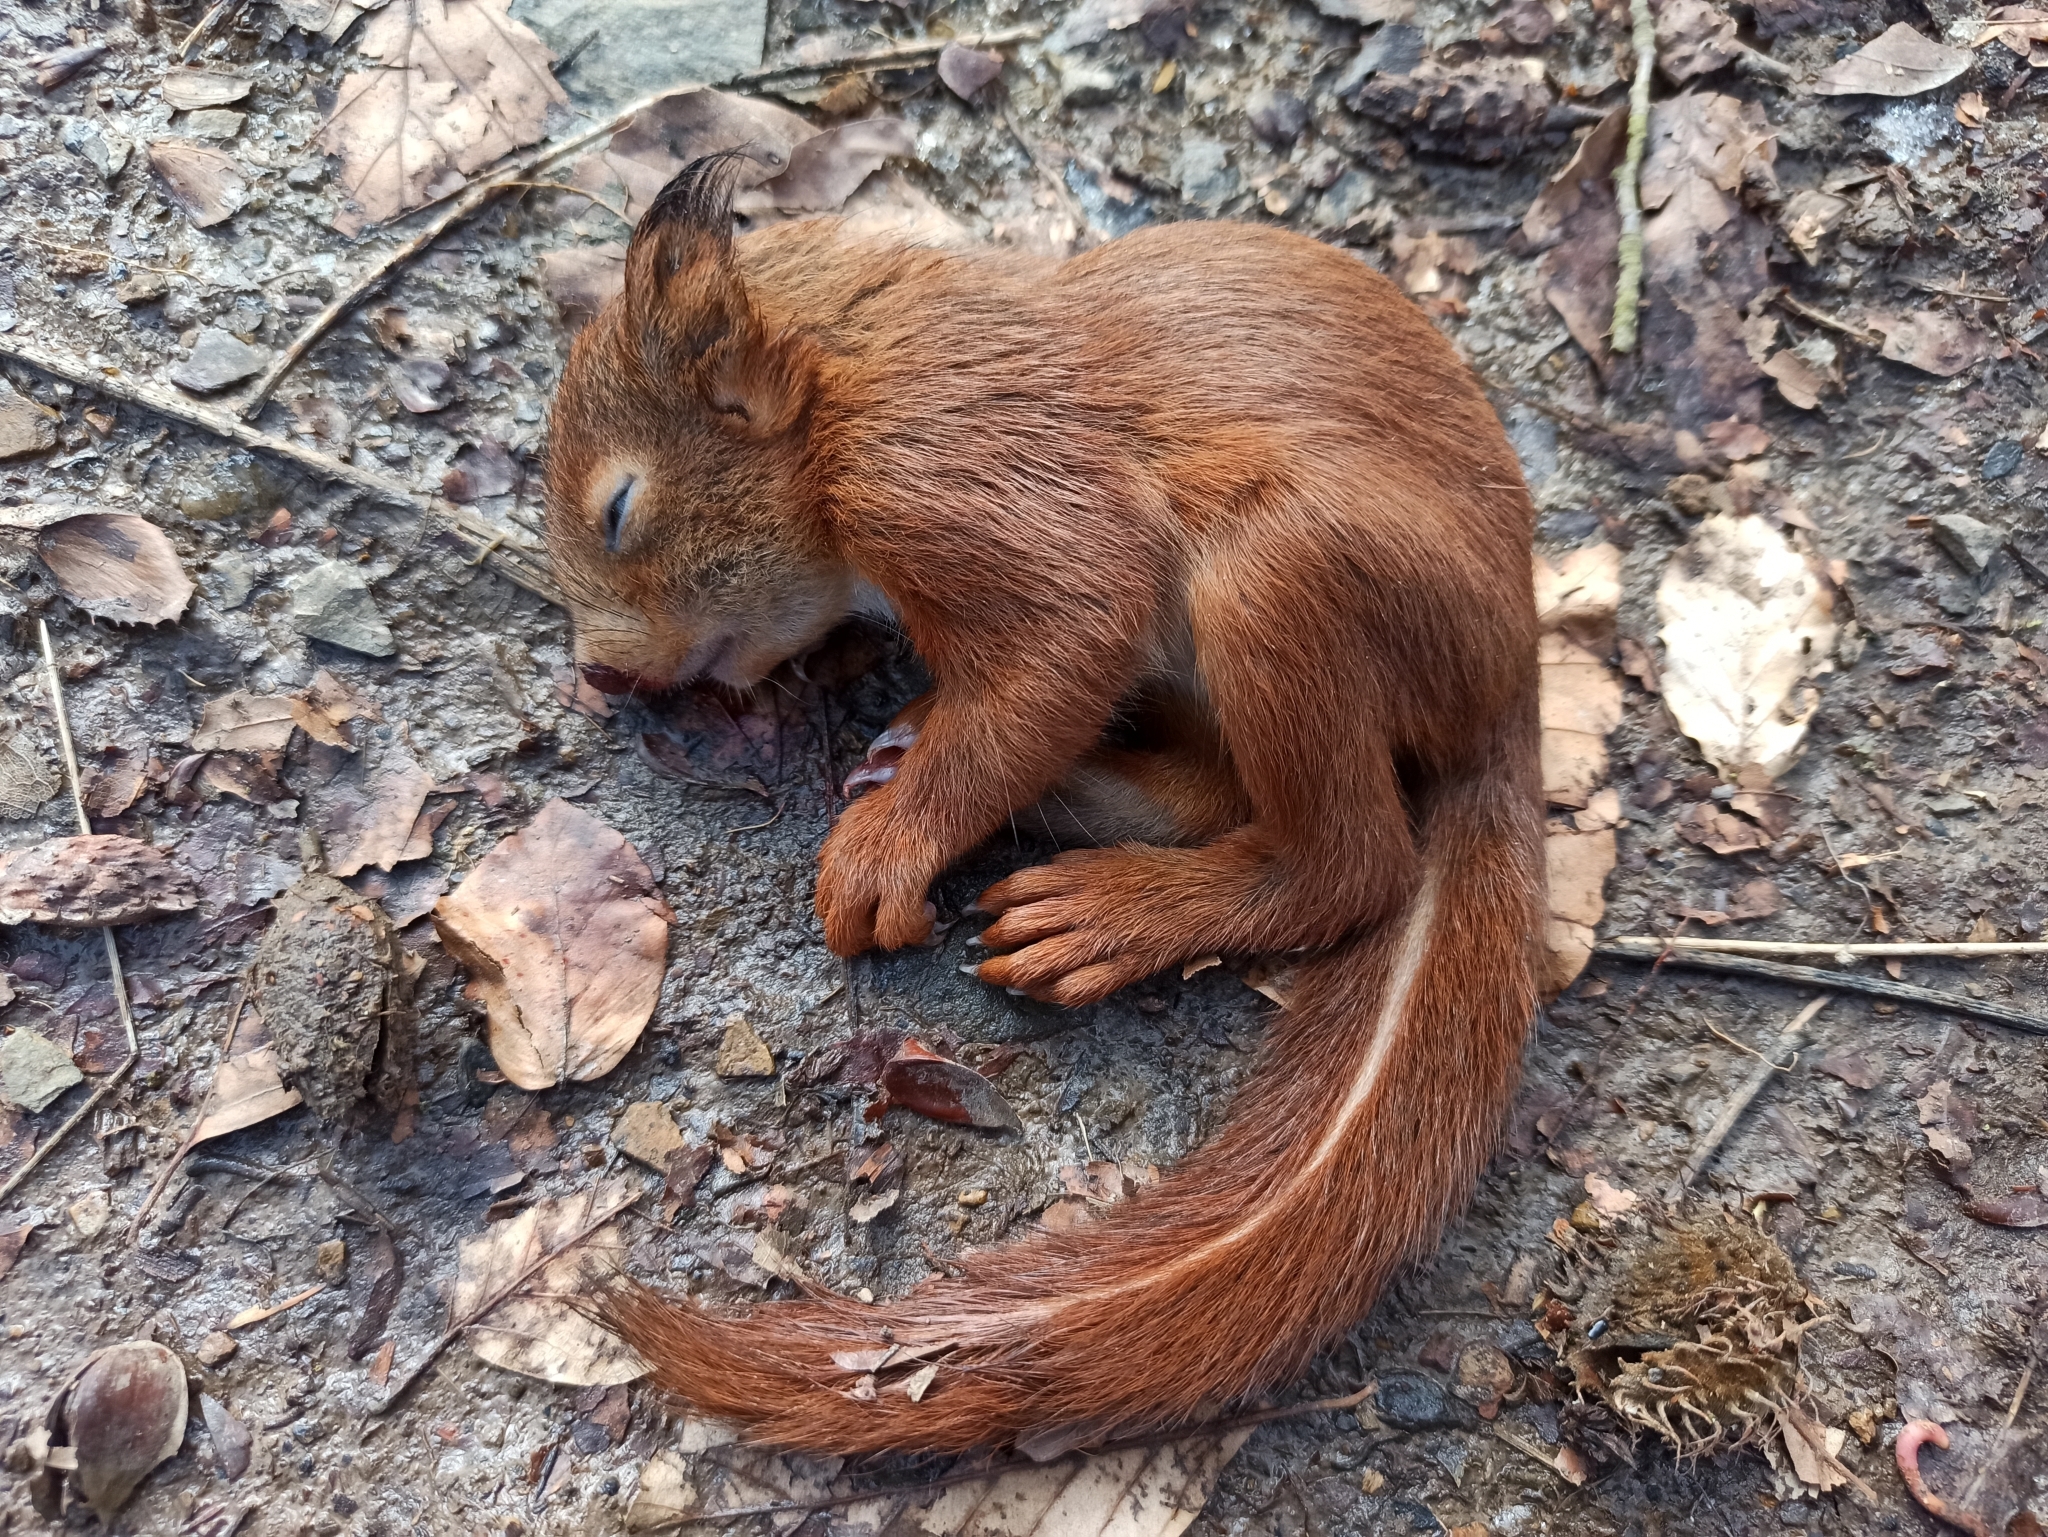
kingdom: Animalia
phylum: Chordata
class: Mammalia
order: Rodentia
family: Sciuridae
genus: Sciurus
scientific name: Sciurus vulgaris
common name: Eurasian red squirrel
